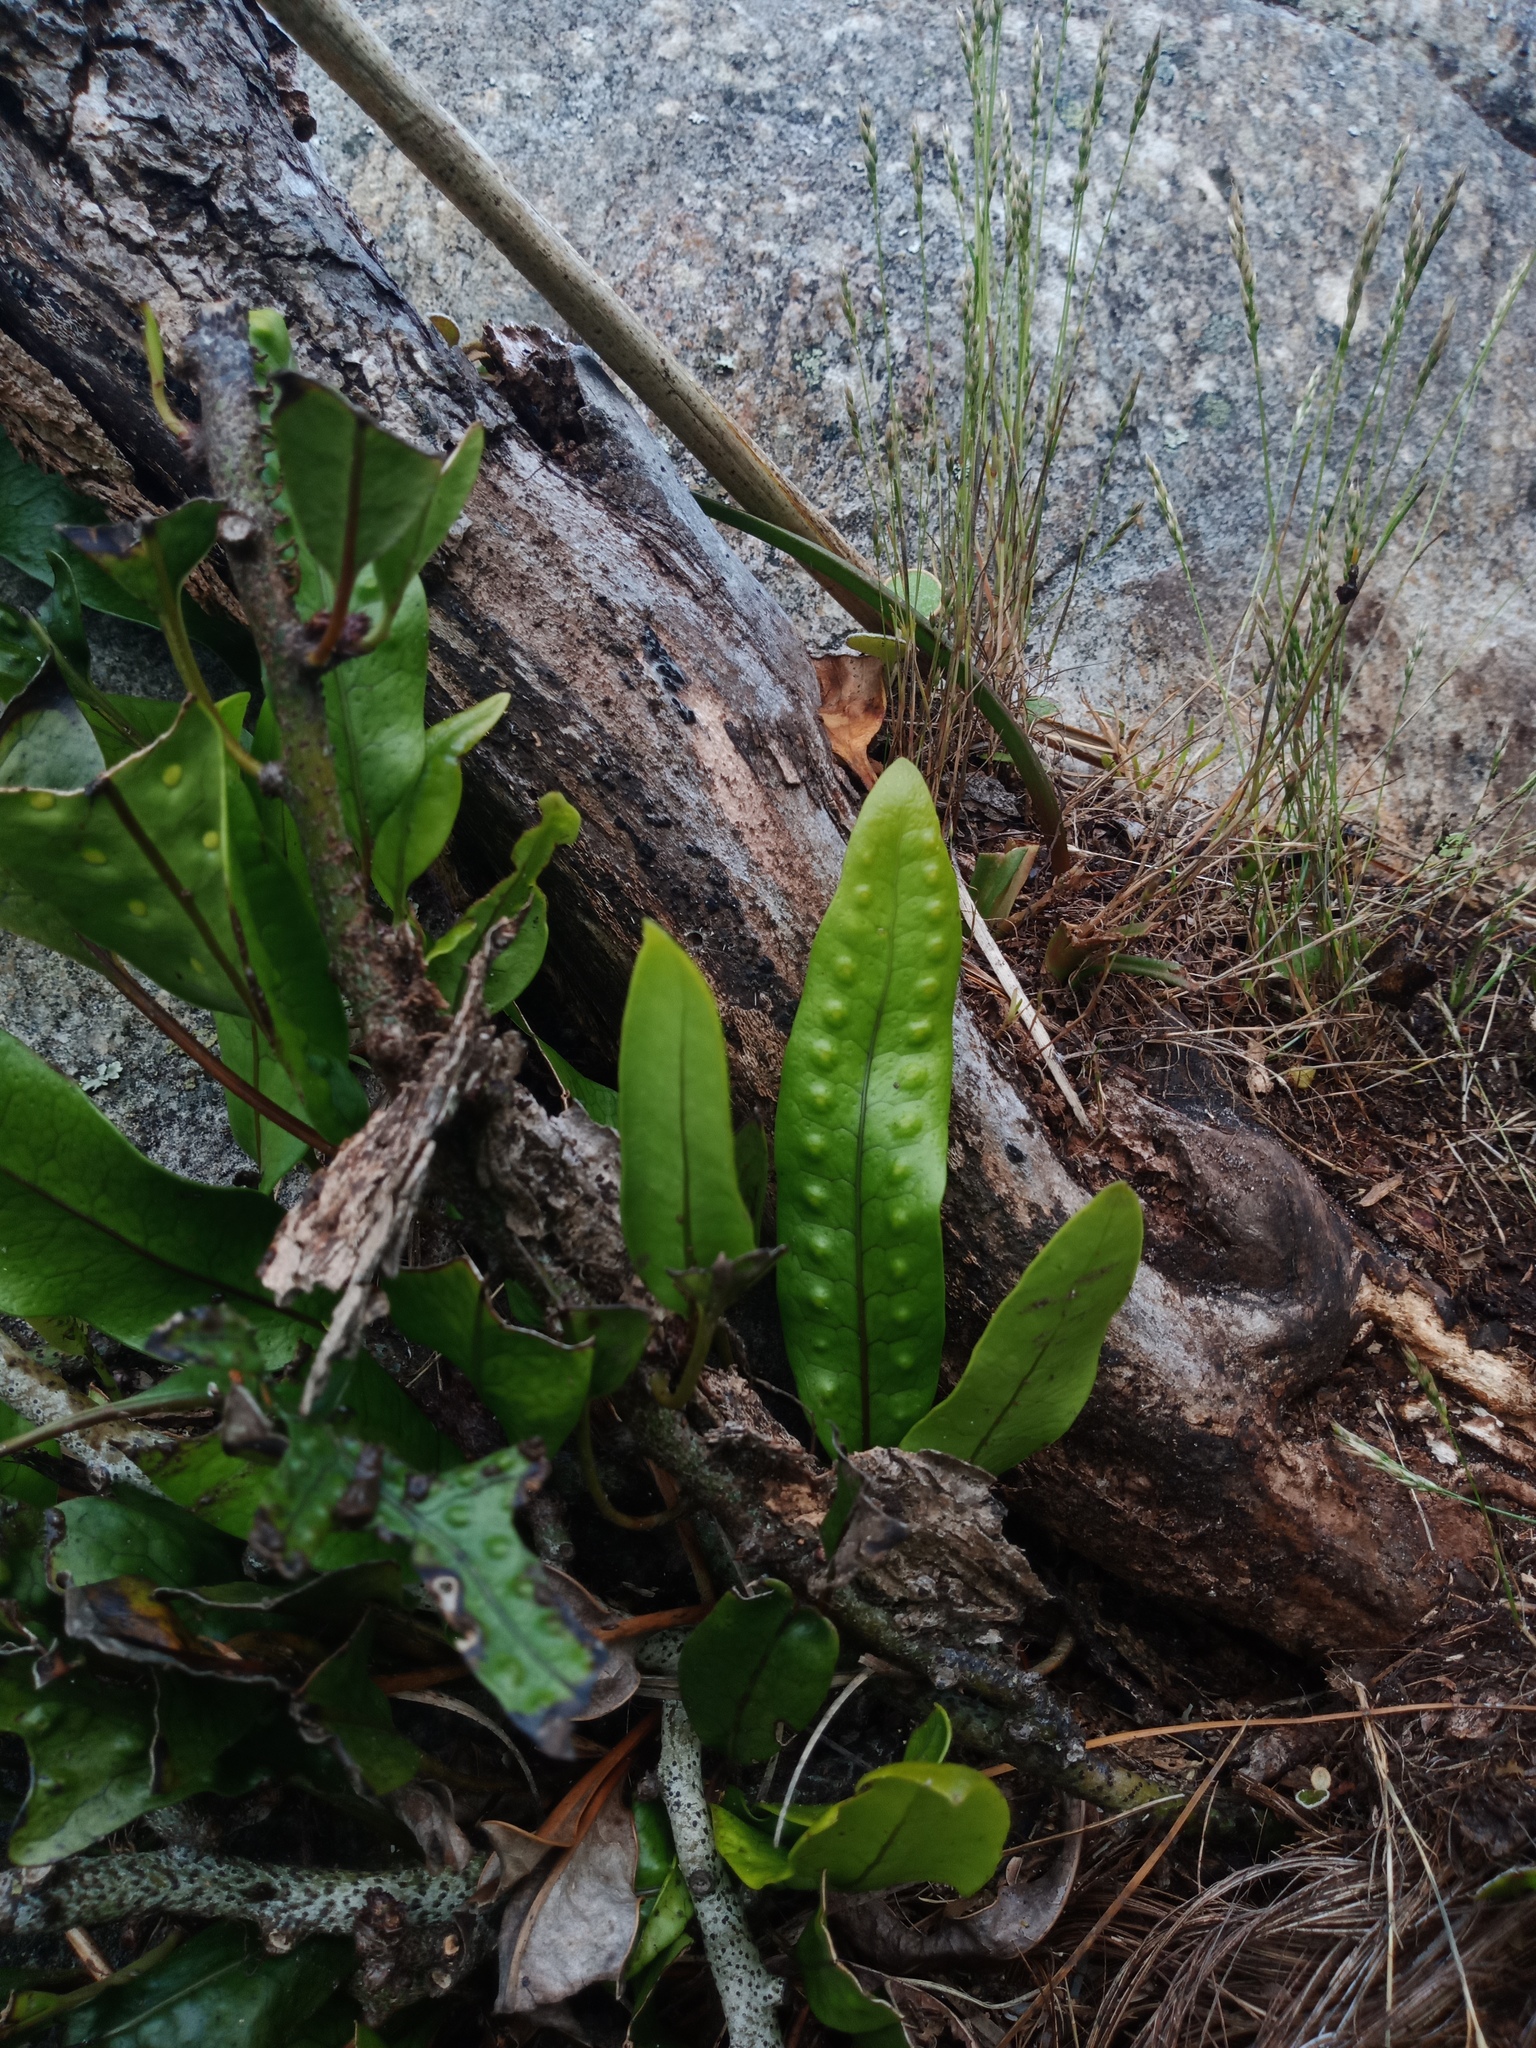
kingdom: Plantae
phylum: Tracheophyta
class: Polypodiopsida
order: Polypodiales
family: Polypodiaceae
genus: Lecanopteris
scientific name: Lecanopteris pustulata
